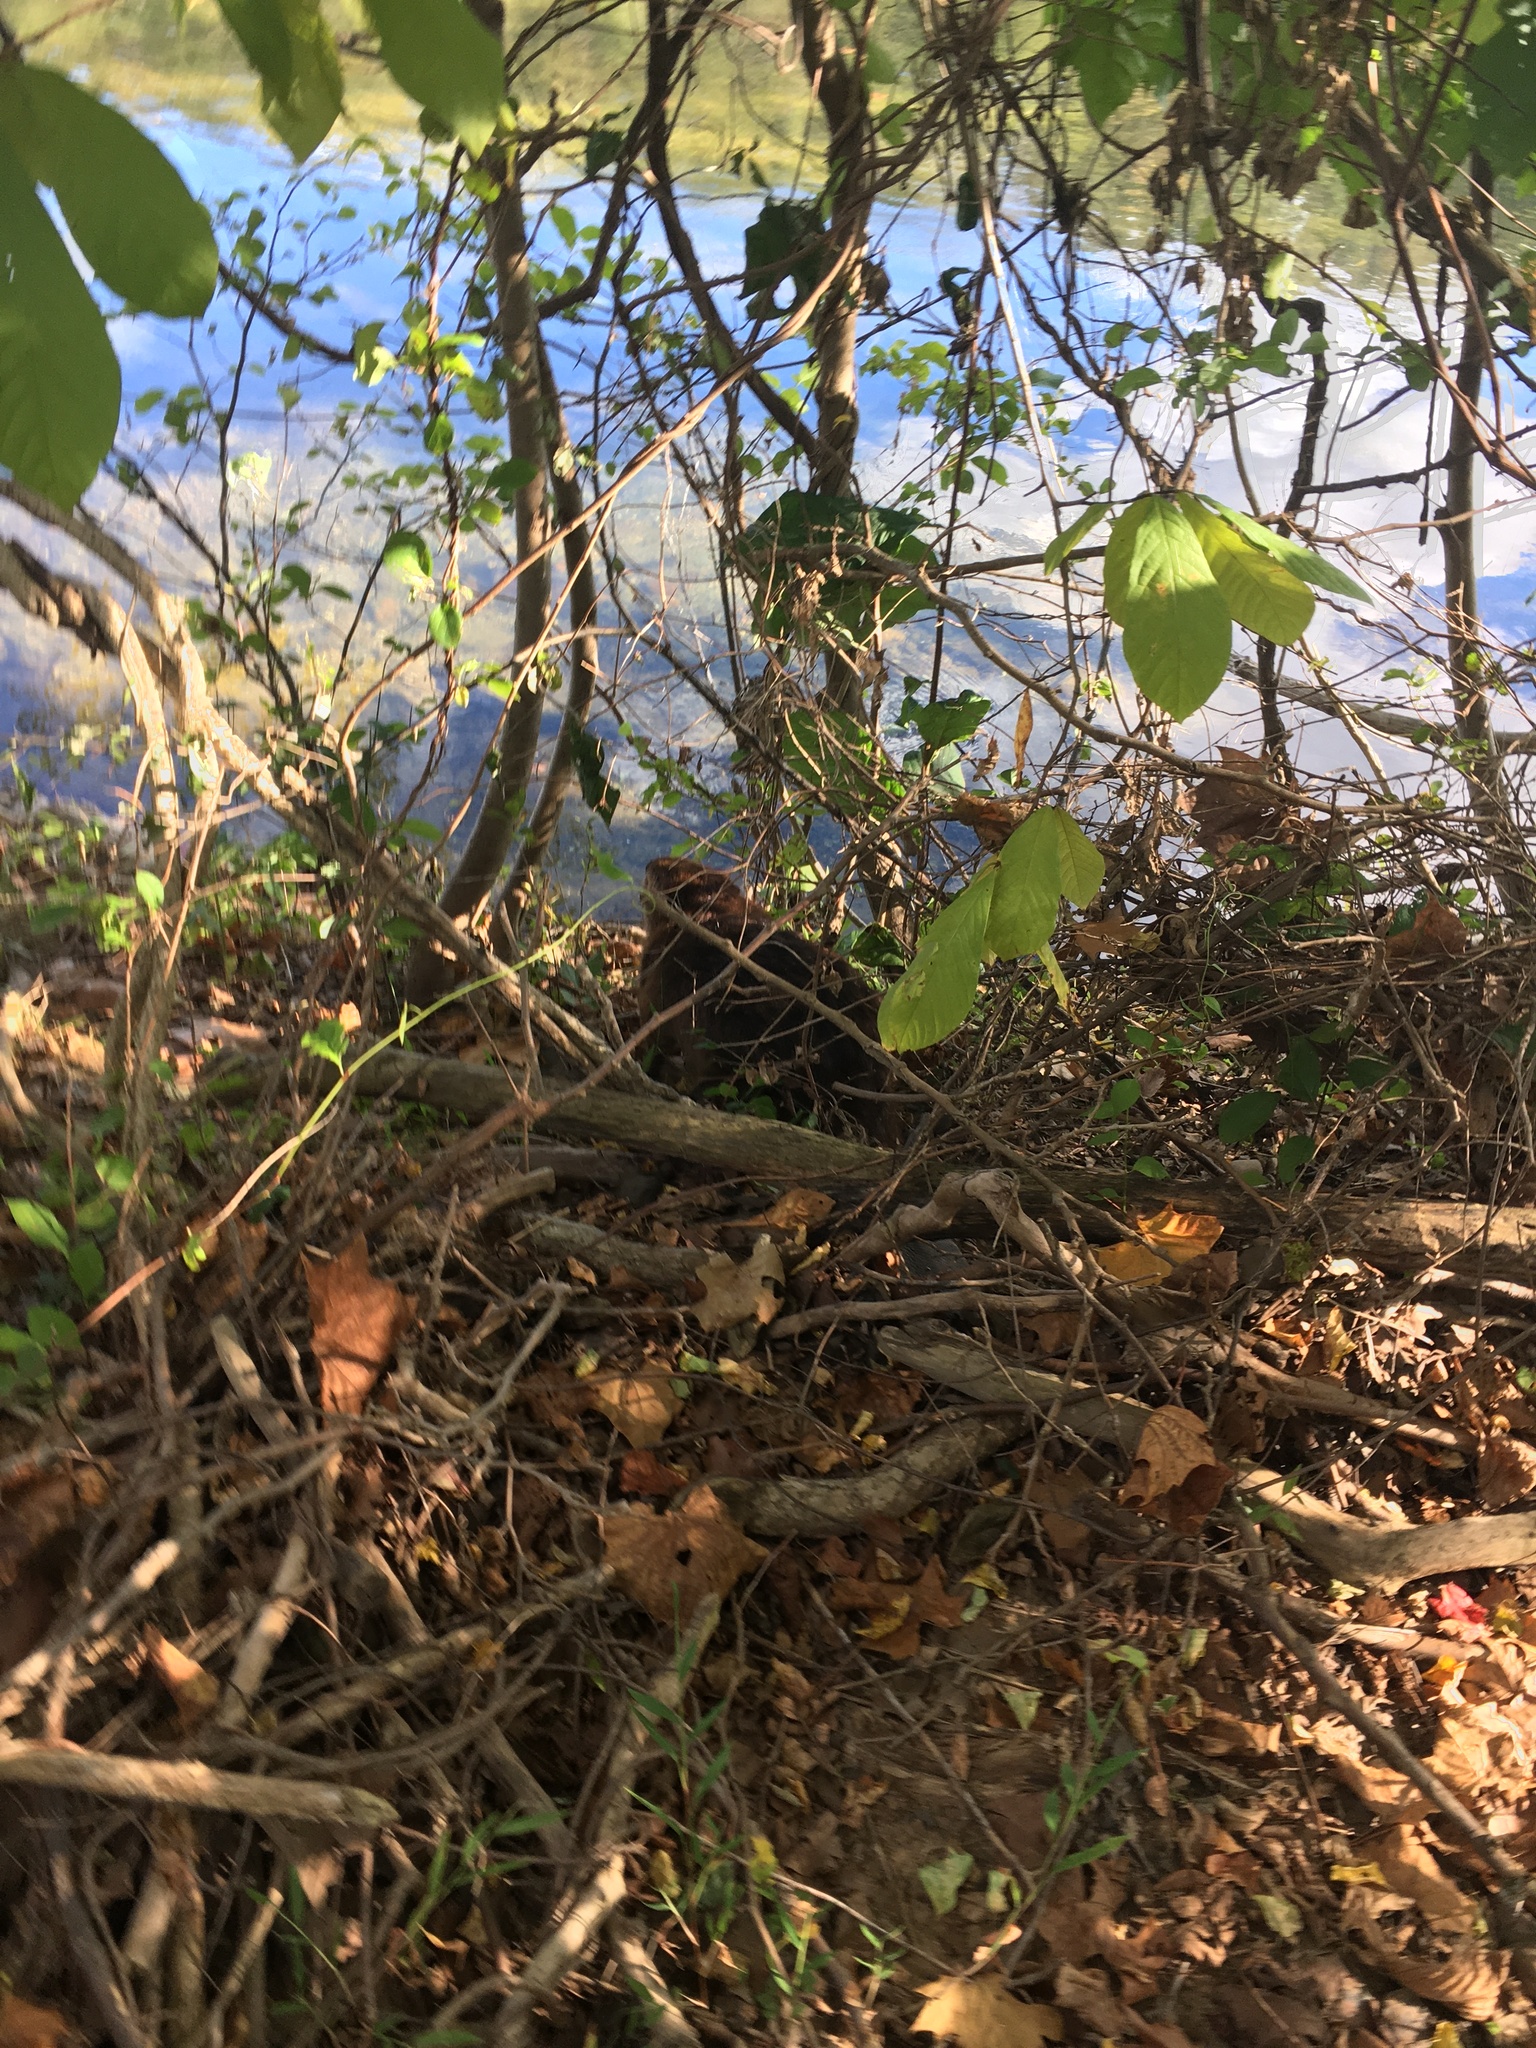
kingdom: Animalia
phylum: Chordata
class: Mammalia
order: Rodentia
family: Castoridae
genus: Castor
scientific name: Castor canadensis
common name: American beaver
